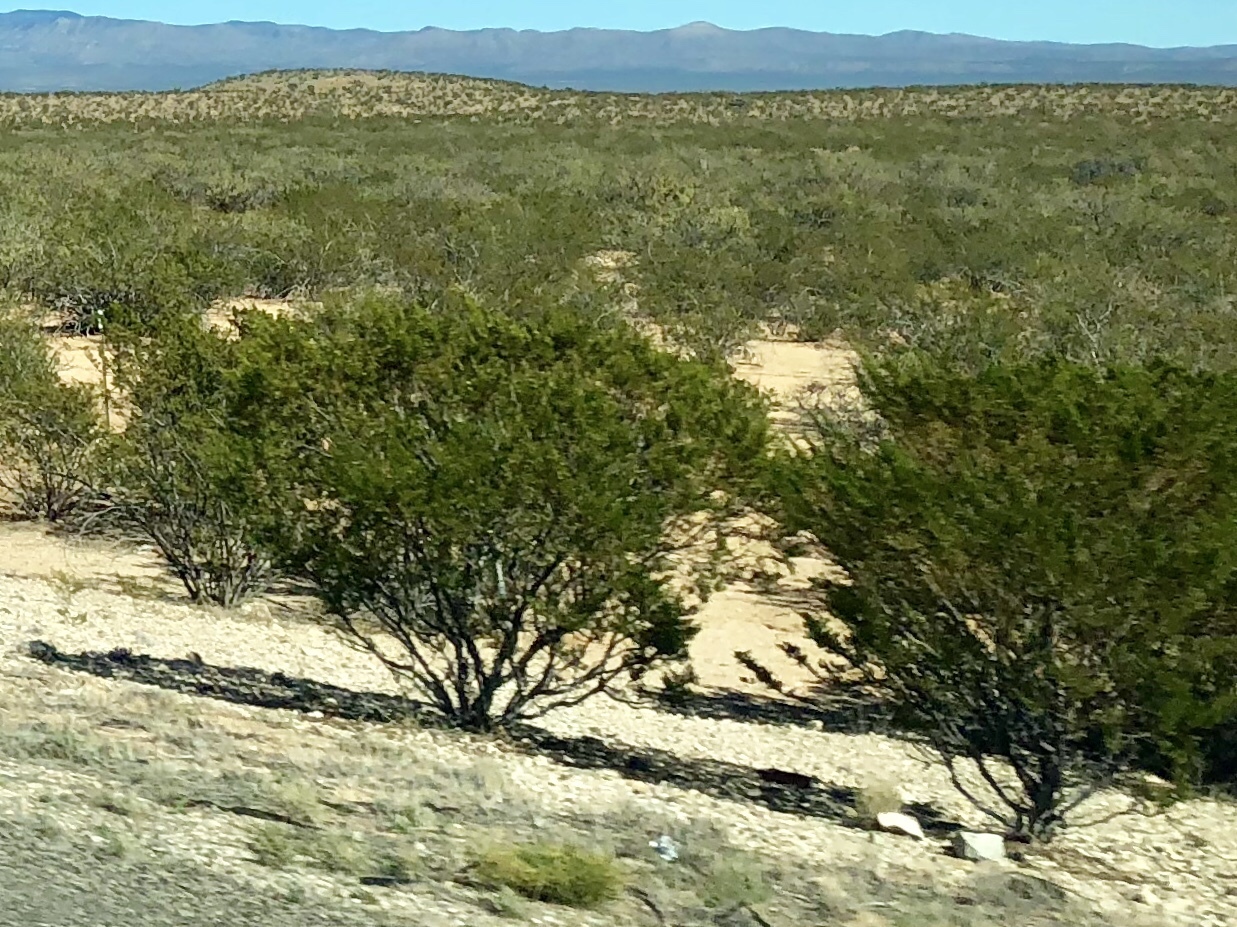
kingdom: Plantae
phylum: Tracheophyta
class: Magnoliopsida
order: Zygophyllales
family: Zygophyllaceae
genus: Larrea
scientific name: Larrea tridentata
